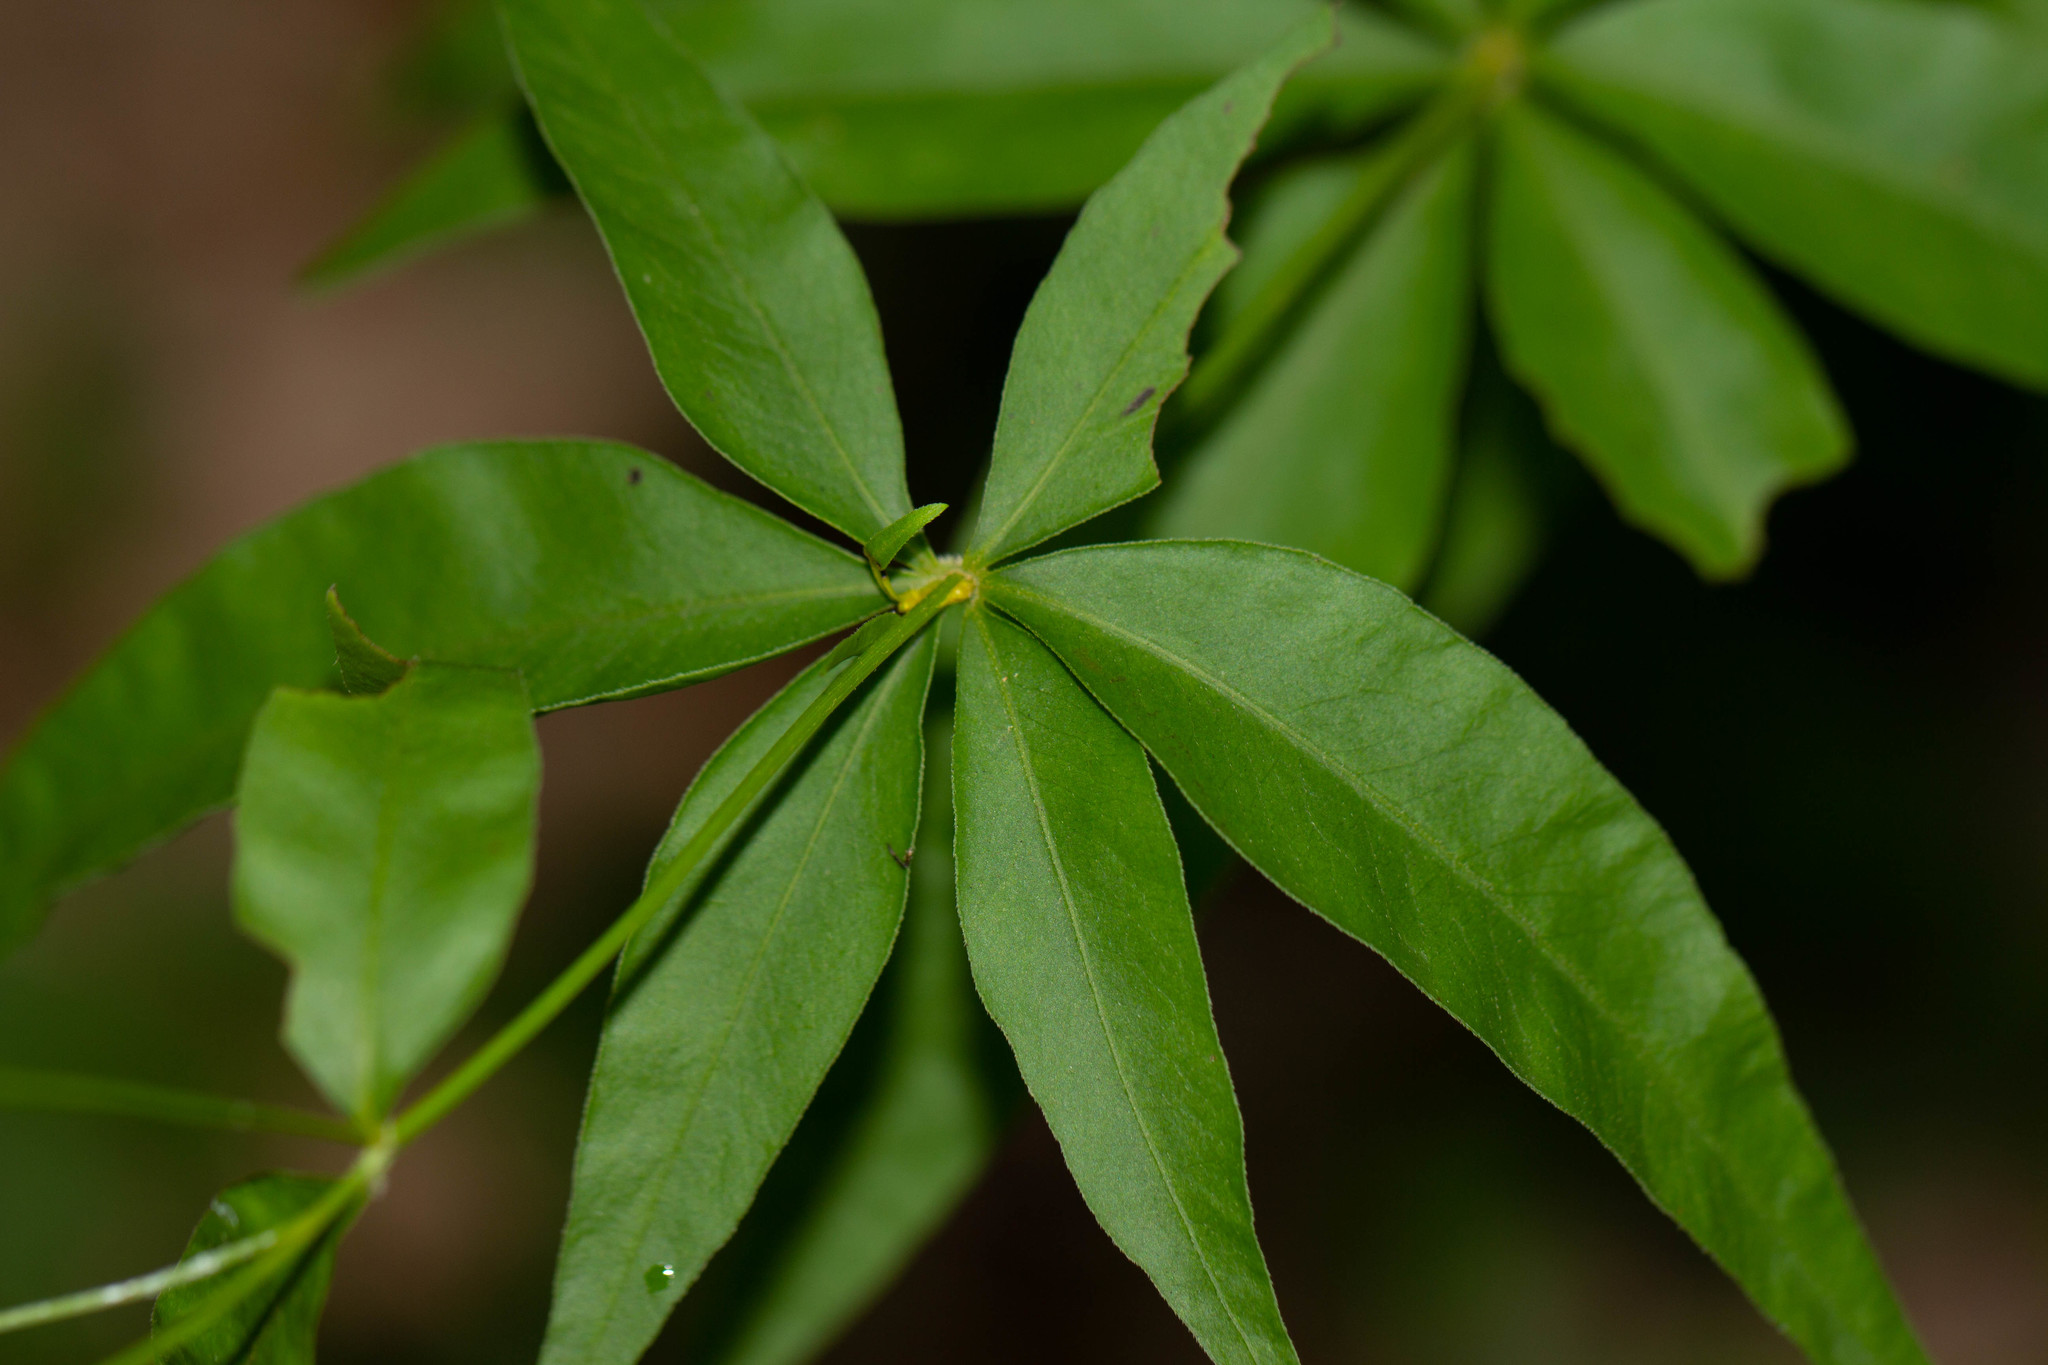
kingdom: Plantae
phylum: Tracheophyta
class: Magnoliopsida
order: Asterales
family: Asteraceae
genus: Coreopsis
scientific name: Coreopsis major
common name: Forest tickseed
